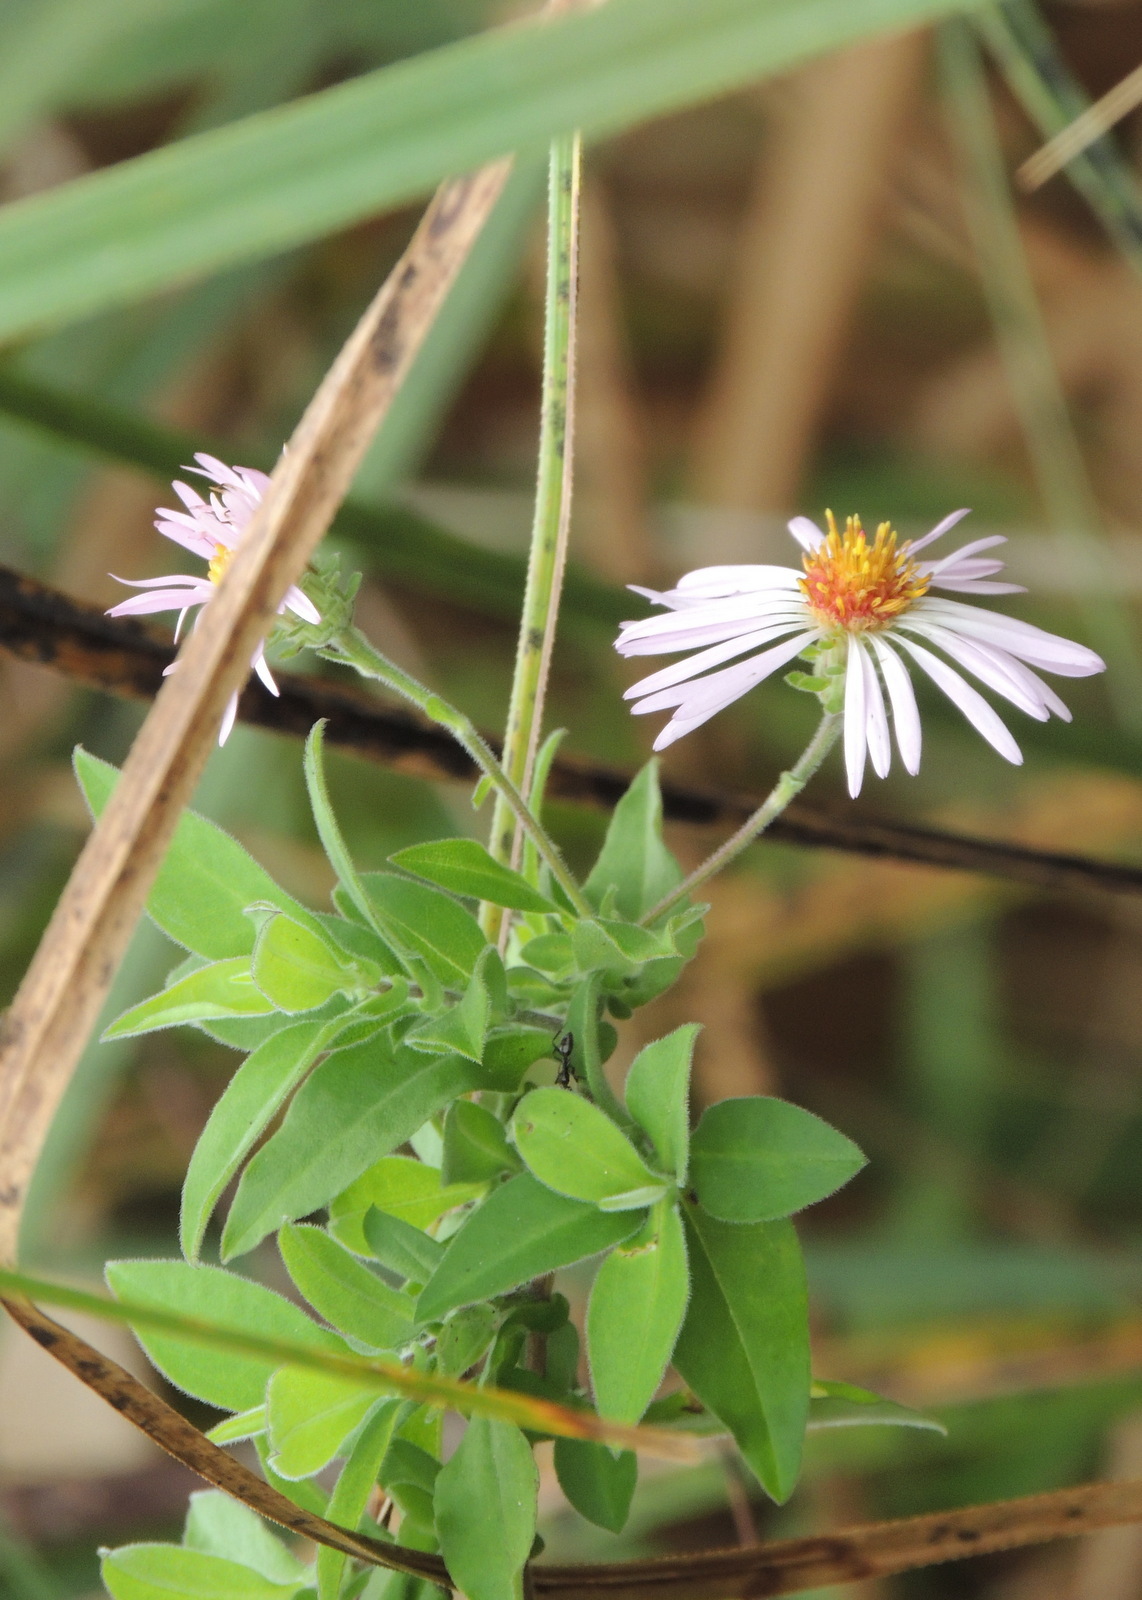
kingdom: Plantae
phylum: Tracheophyta
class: Magnoliopsida
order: Asterales
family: Asteraceae
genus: Ampelaster
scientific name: Ampelaster carolinianus
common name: Climbing aster
